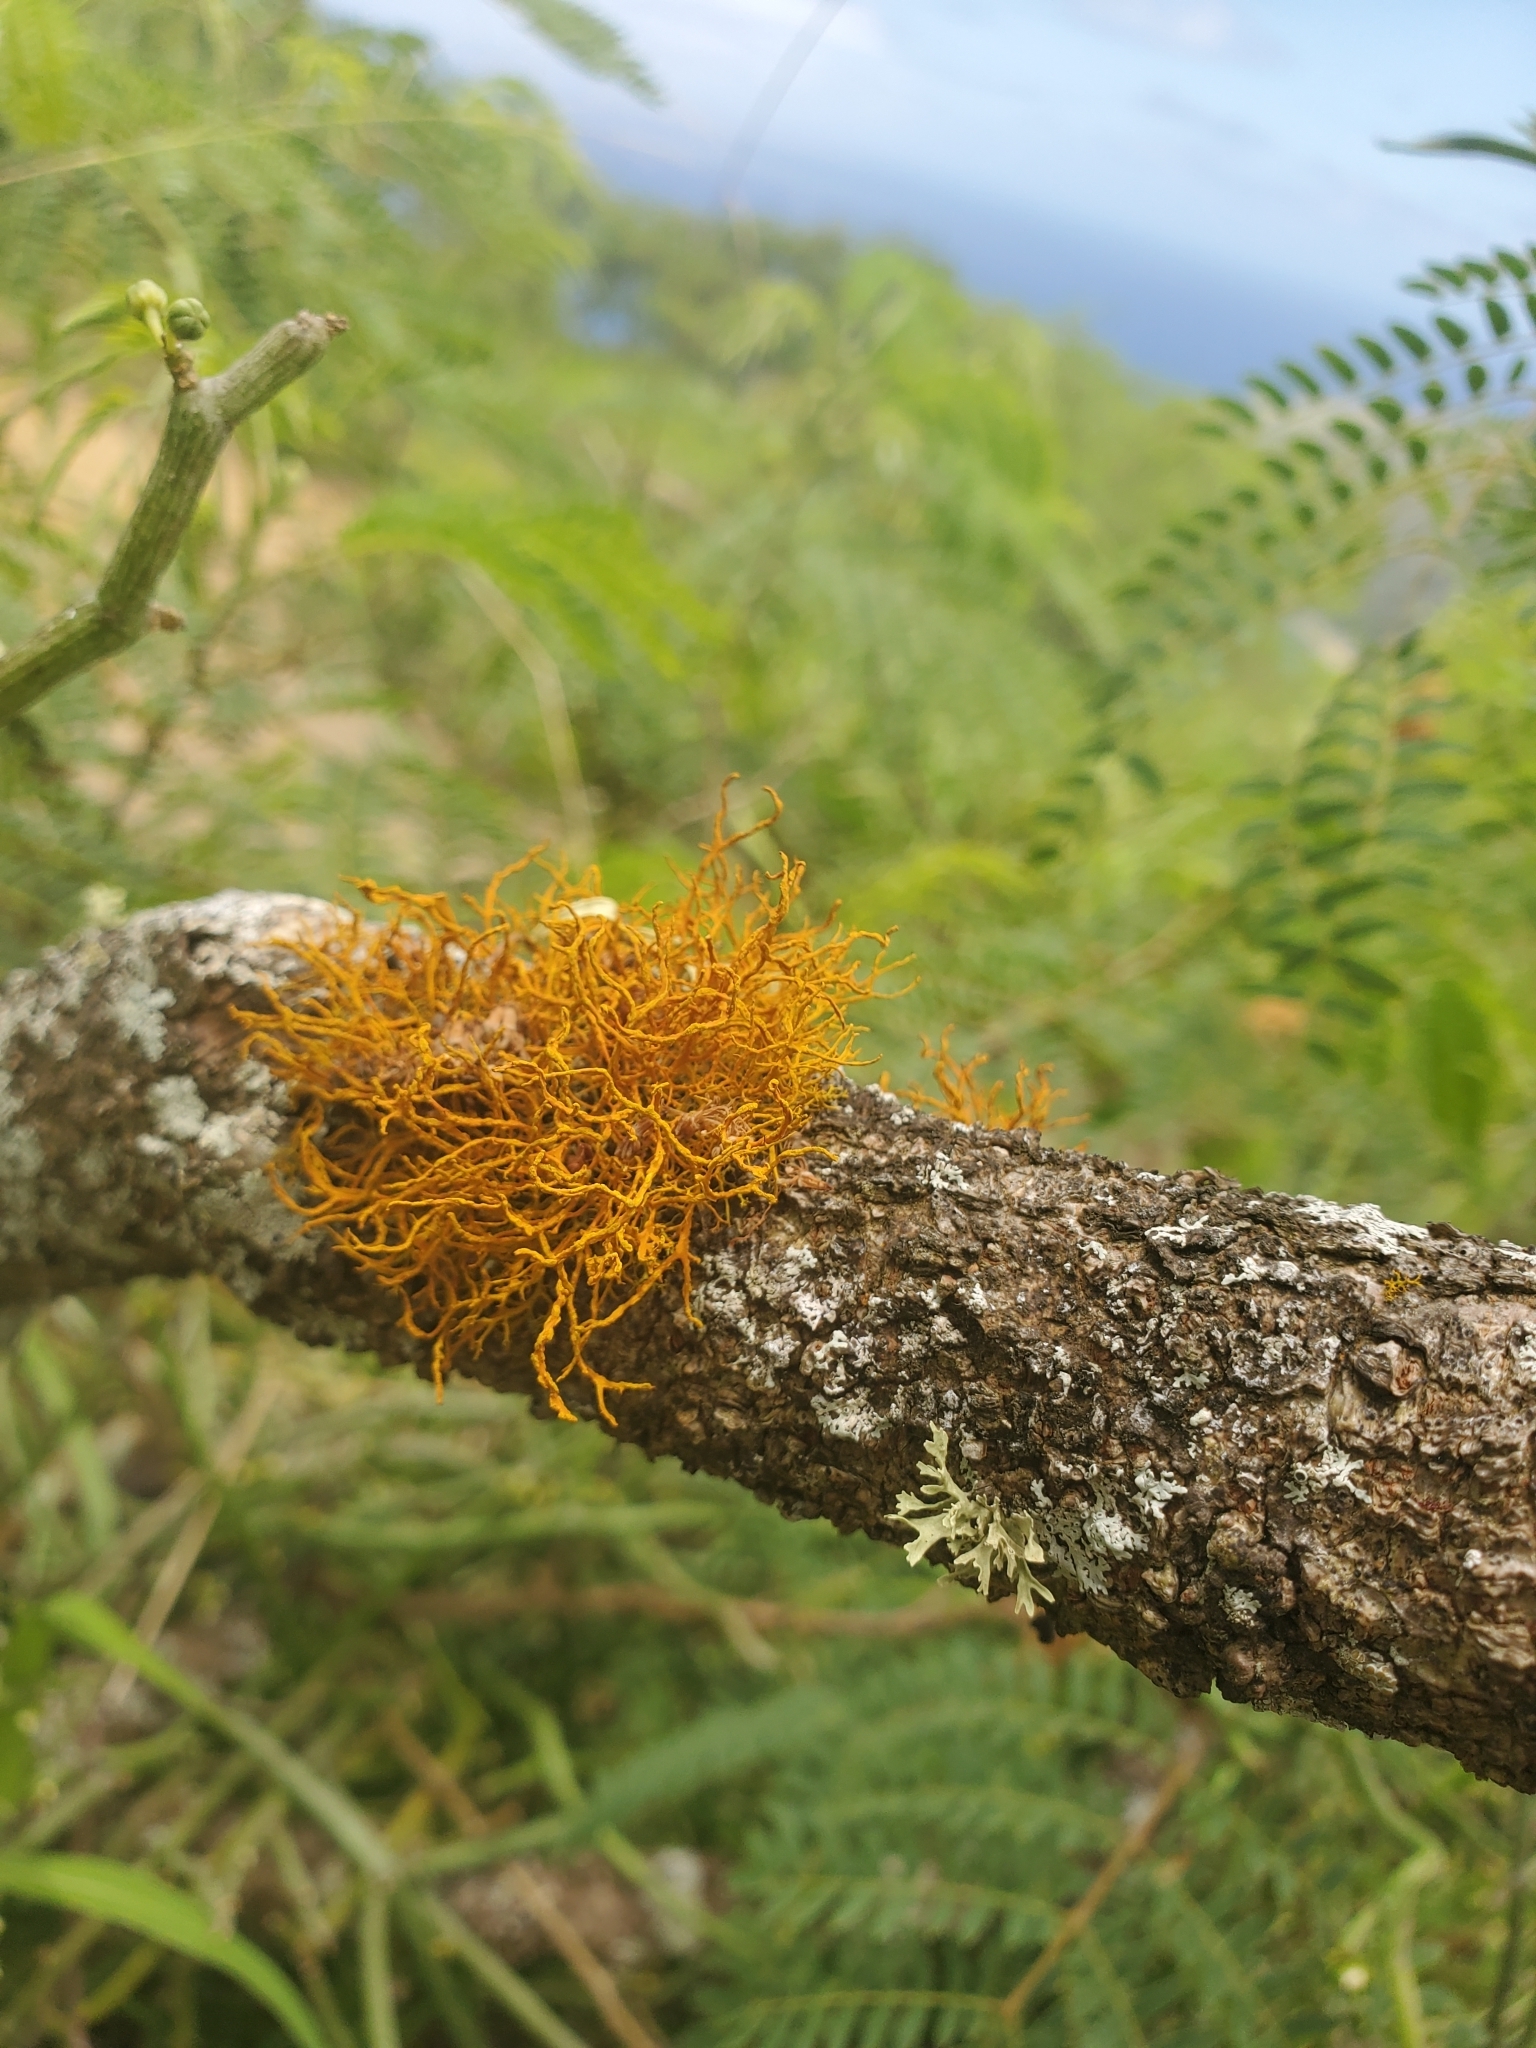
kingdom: Fungi
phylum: Ascomycota
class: Lecanoromycetes
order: Teloschistales
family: Teloschistaceae
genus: Teloschistes
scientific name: Teloschistes flavicans
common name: Golden hair-lichen
